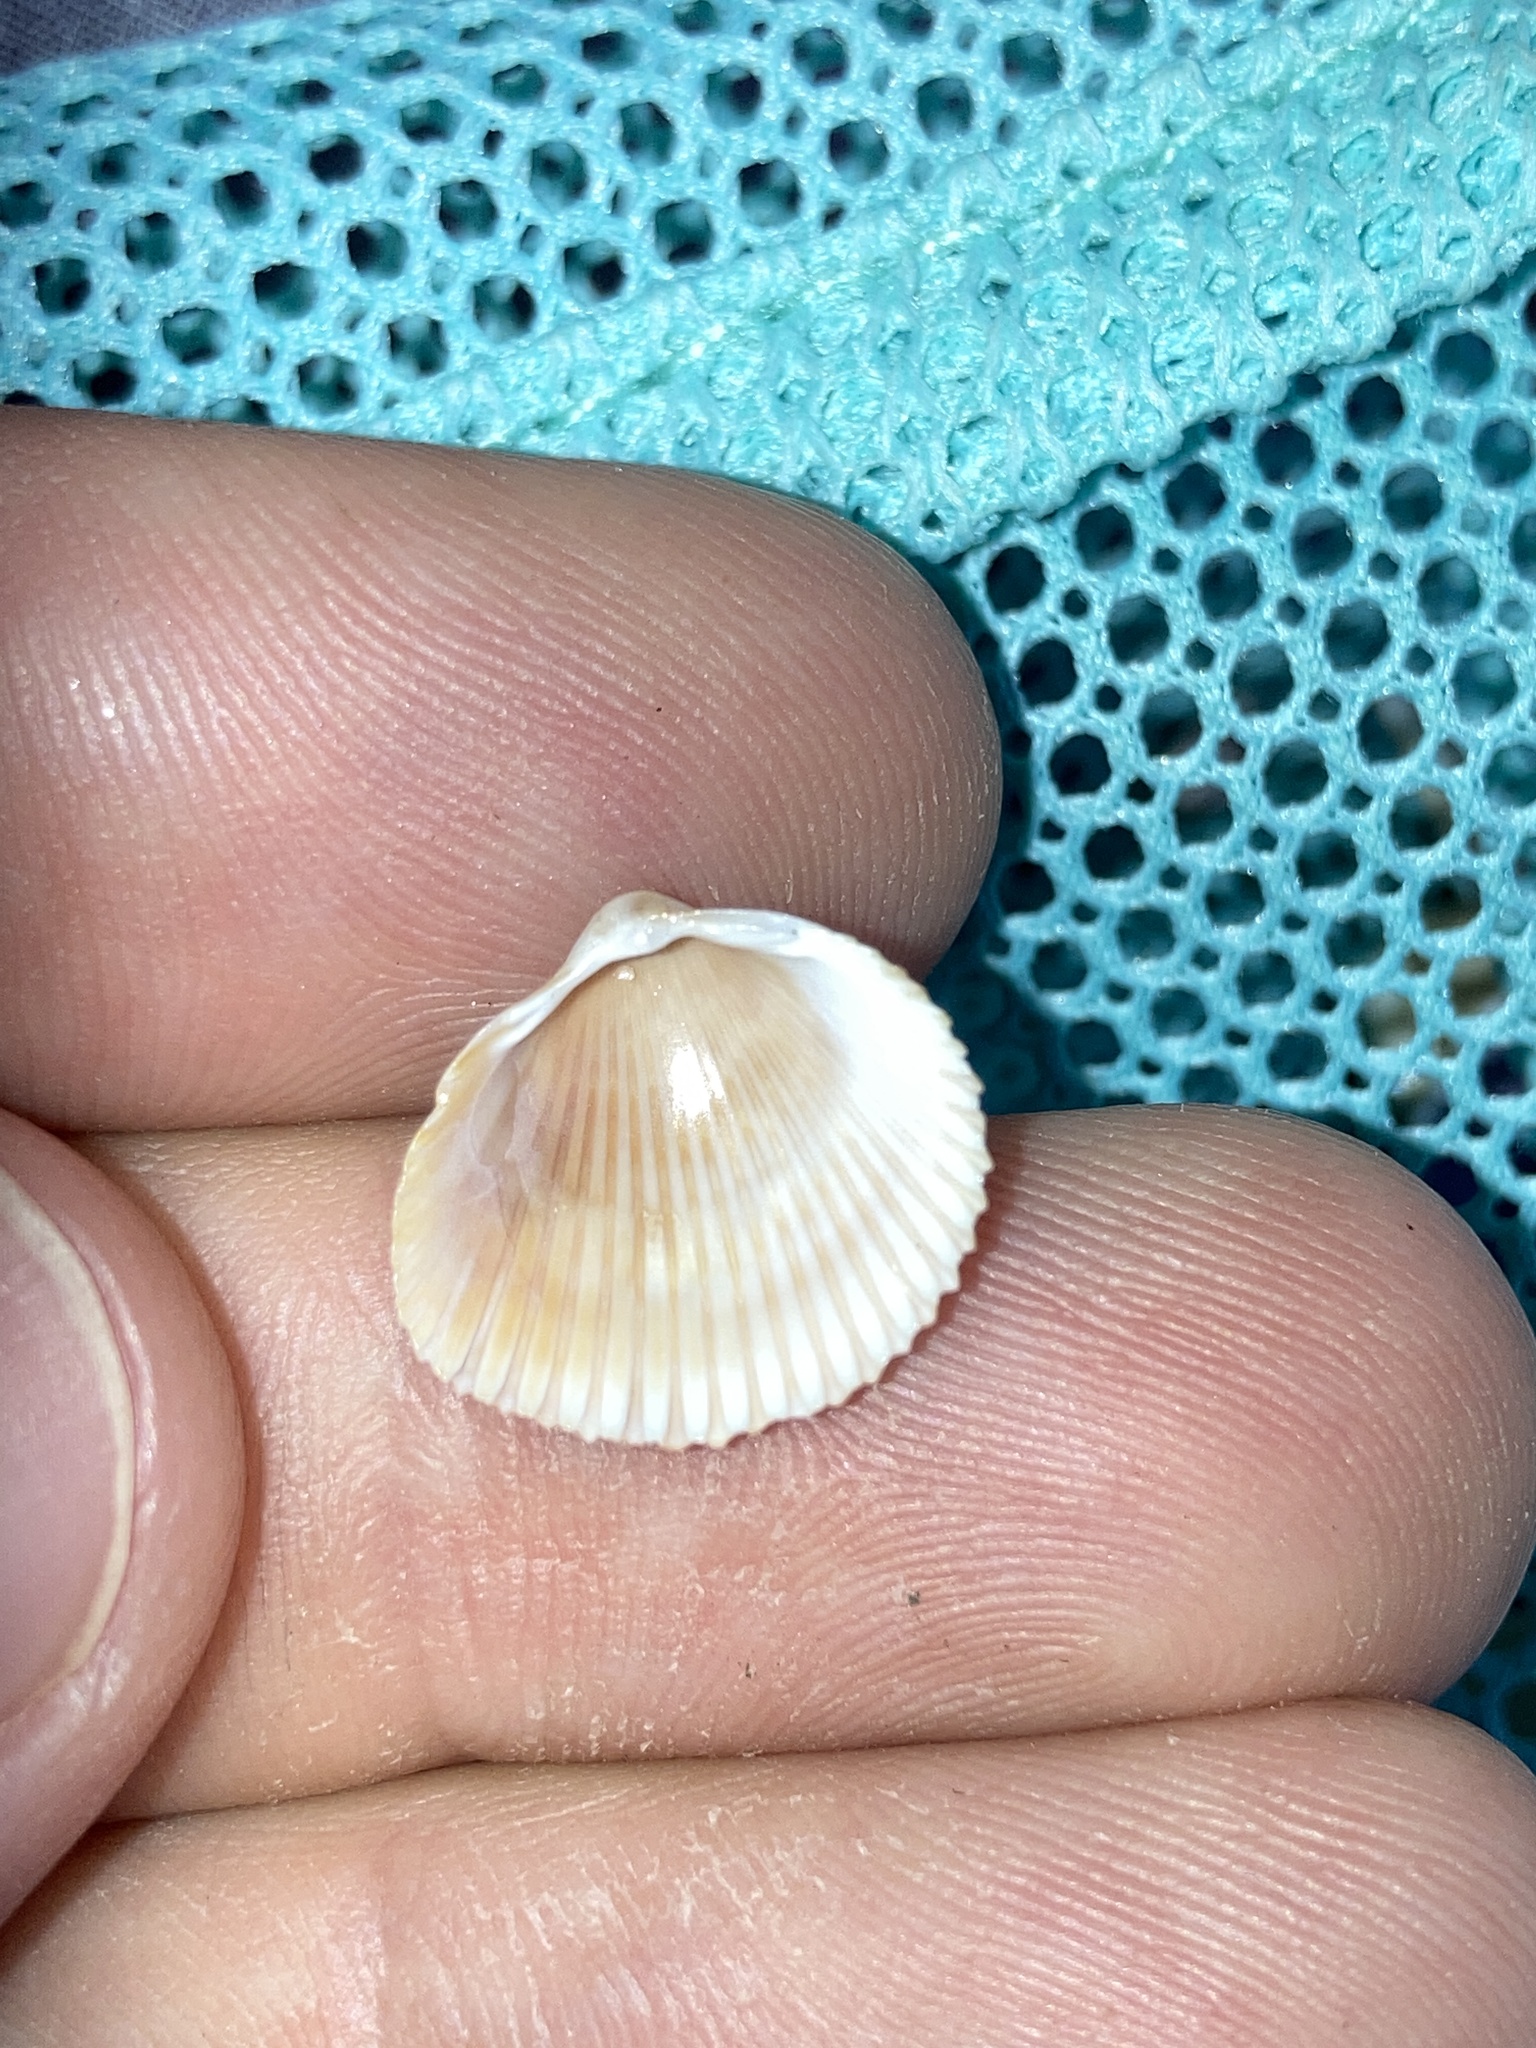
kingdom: Animalia
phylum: Mollusca
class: Bivalvia
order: Cardiida
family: Cardiidae
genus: Dinocardium
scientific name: Dinocardium robustum
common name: Atlantic giant cockle
